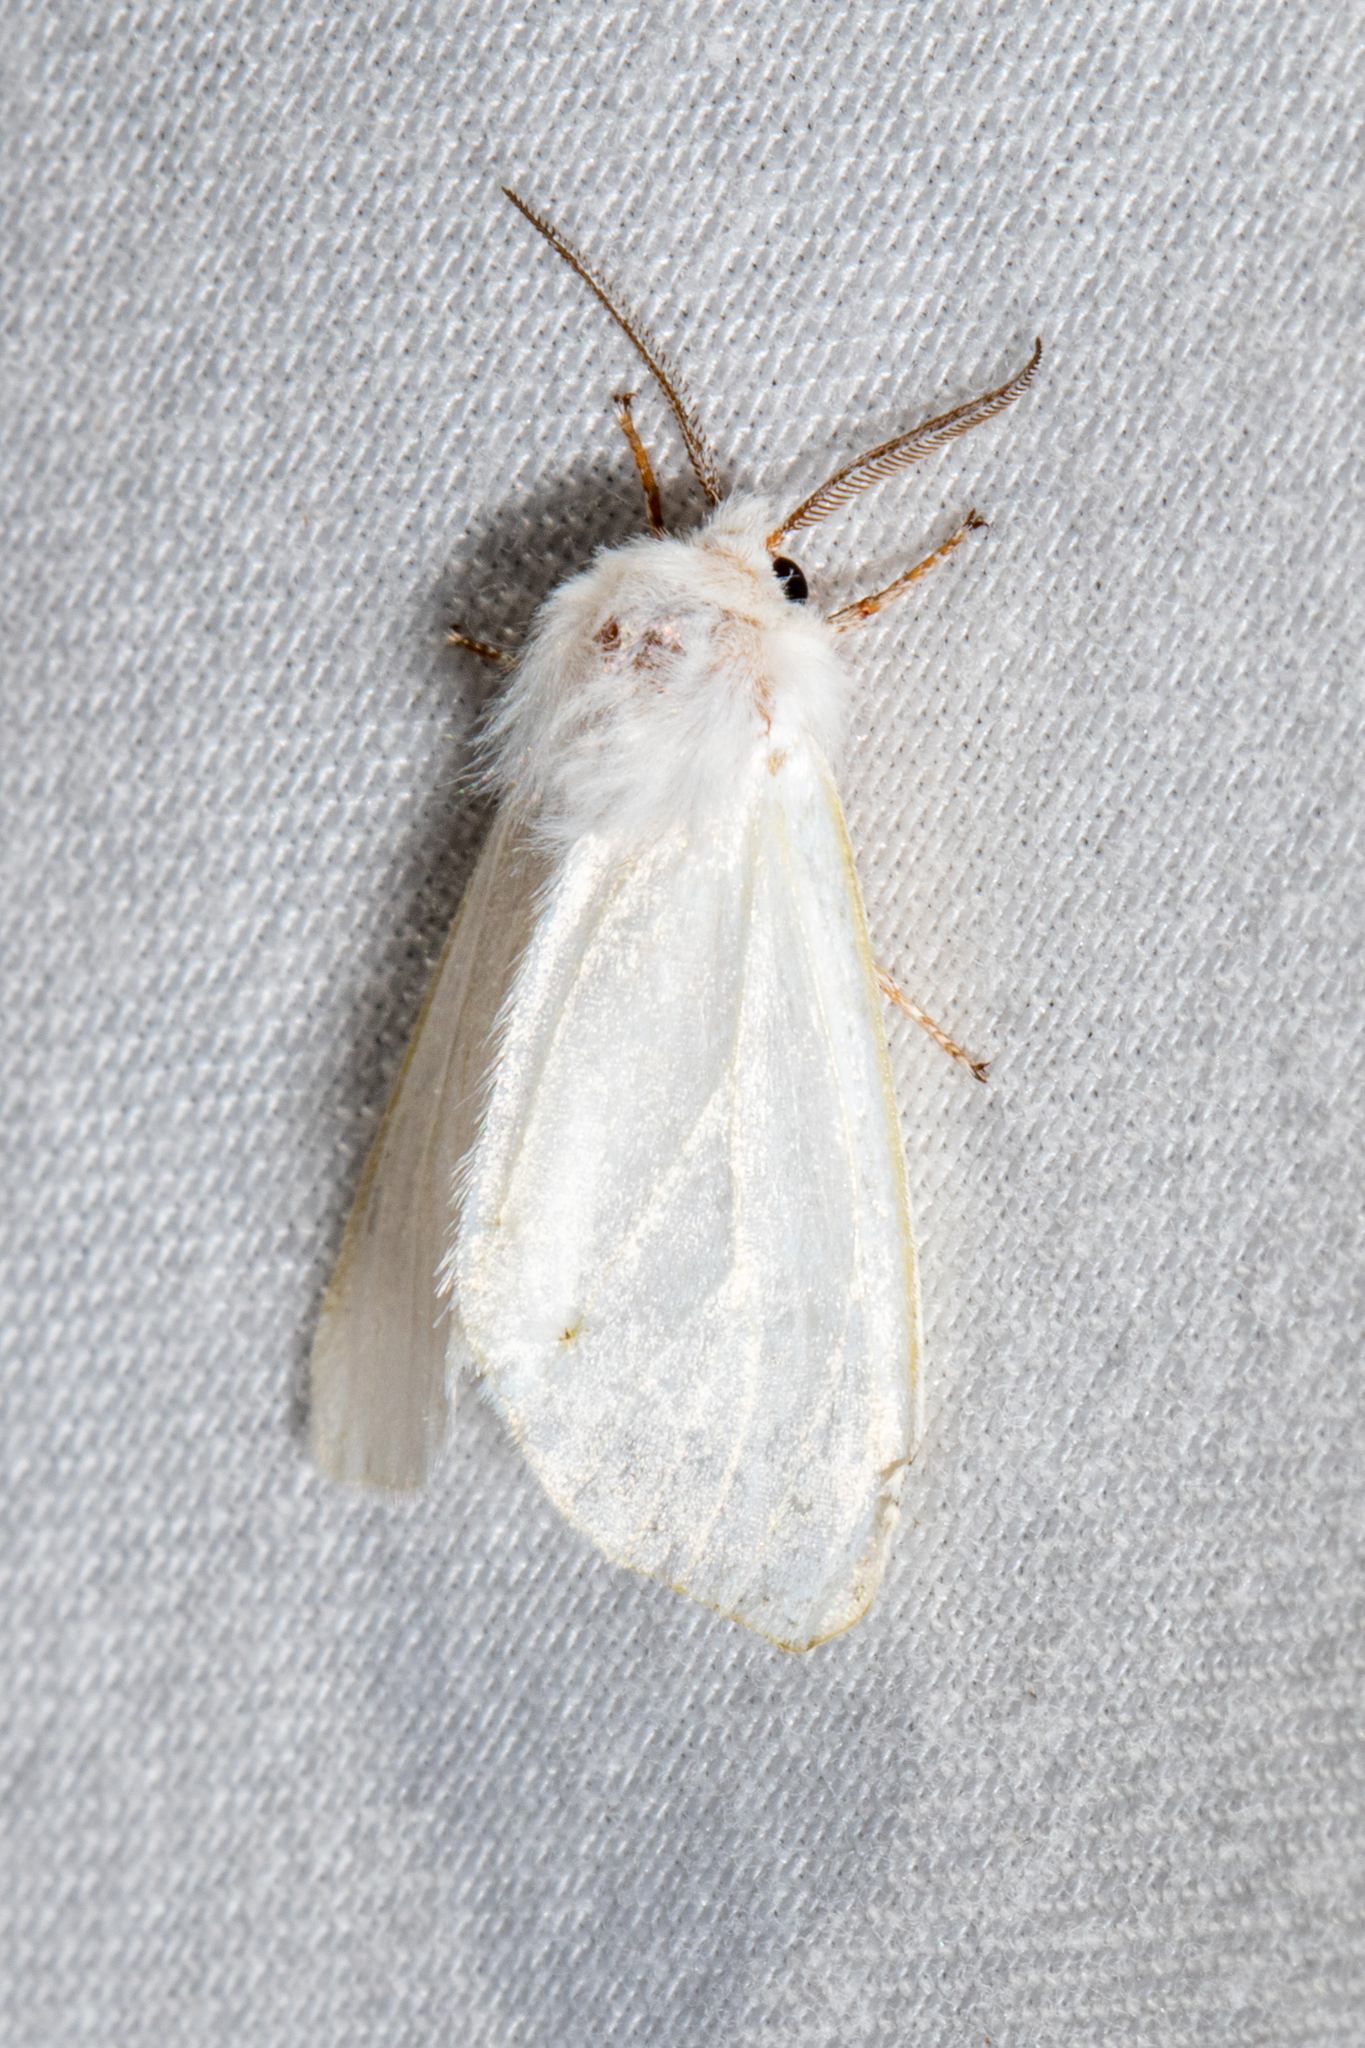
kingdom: Animalia
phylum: Arthropoda
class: Insecta
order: Lepidoptera
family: Erebidae
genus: Hyphantria
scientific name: Hyphantria cunea
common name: American white moth
